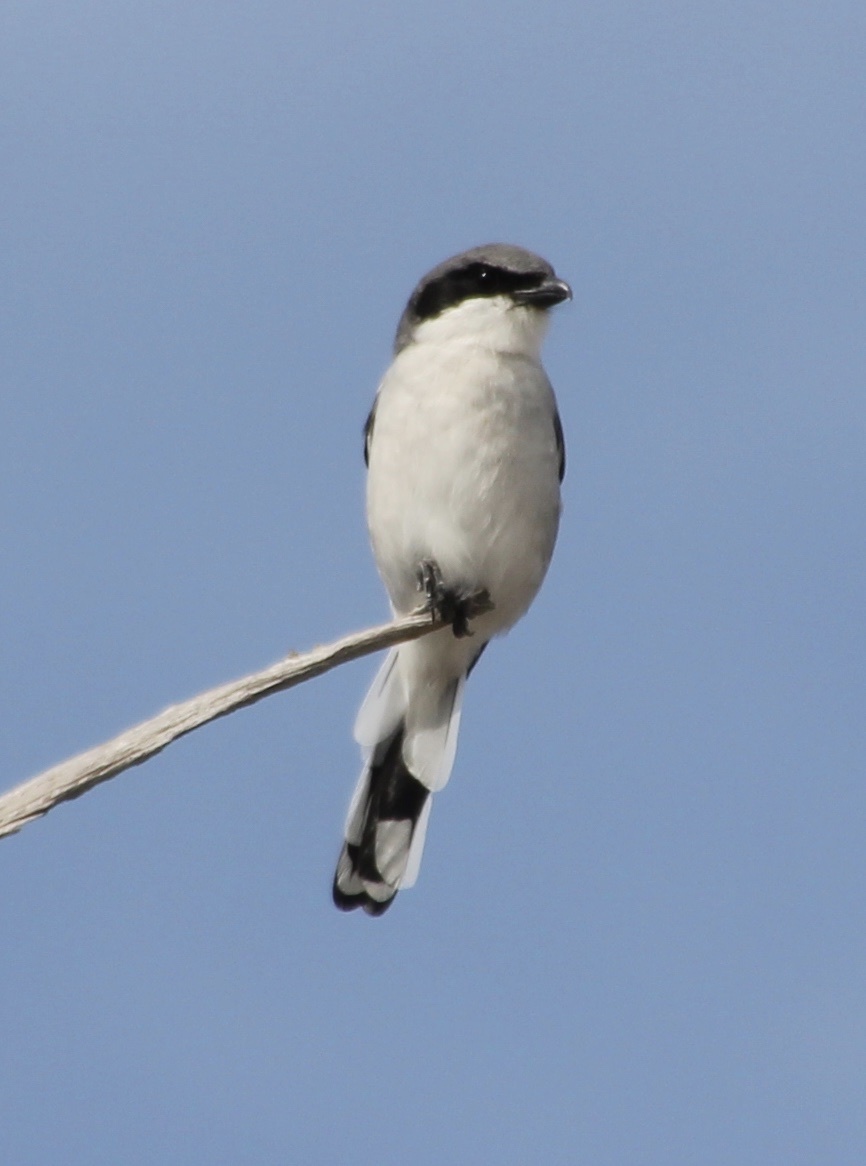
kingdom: Animalia
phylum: Chordata
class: Aves
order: Passeriformes
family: Laniidae
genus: Lanius
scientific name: Lanius ludovicianus
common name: Loggerhead shrike
